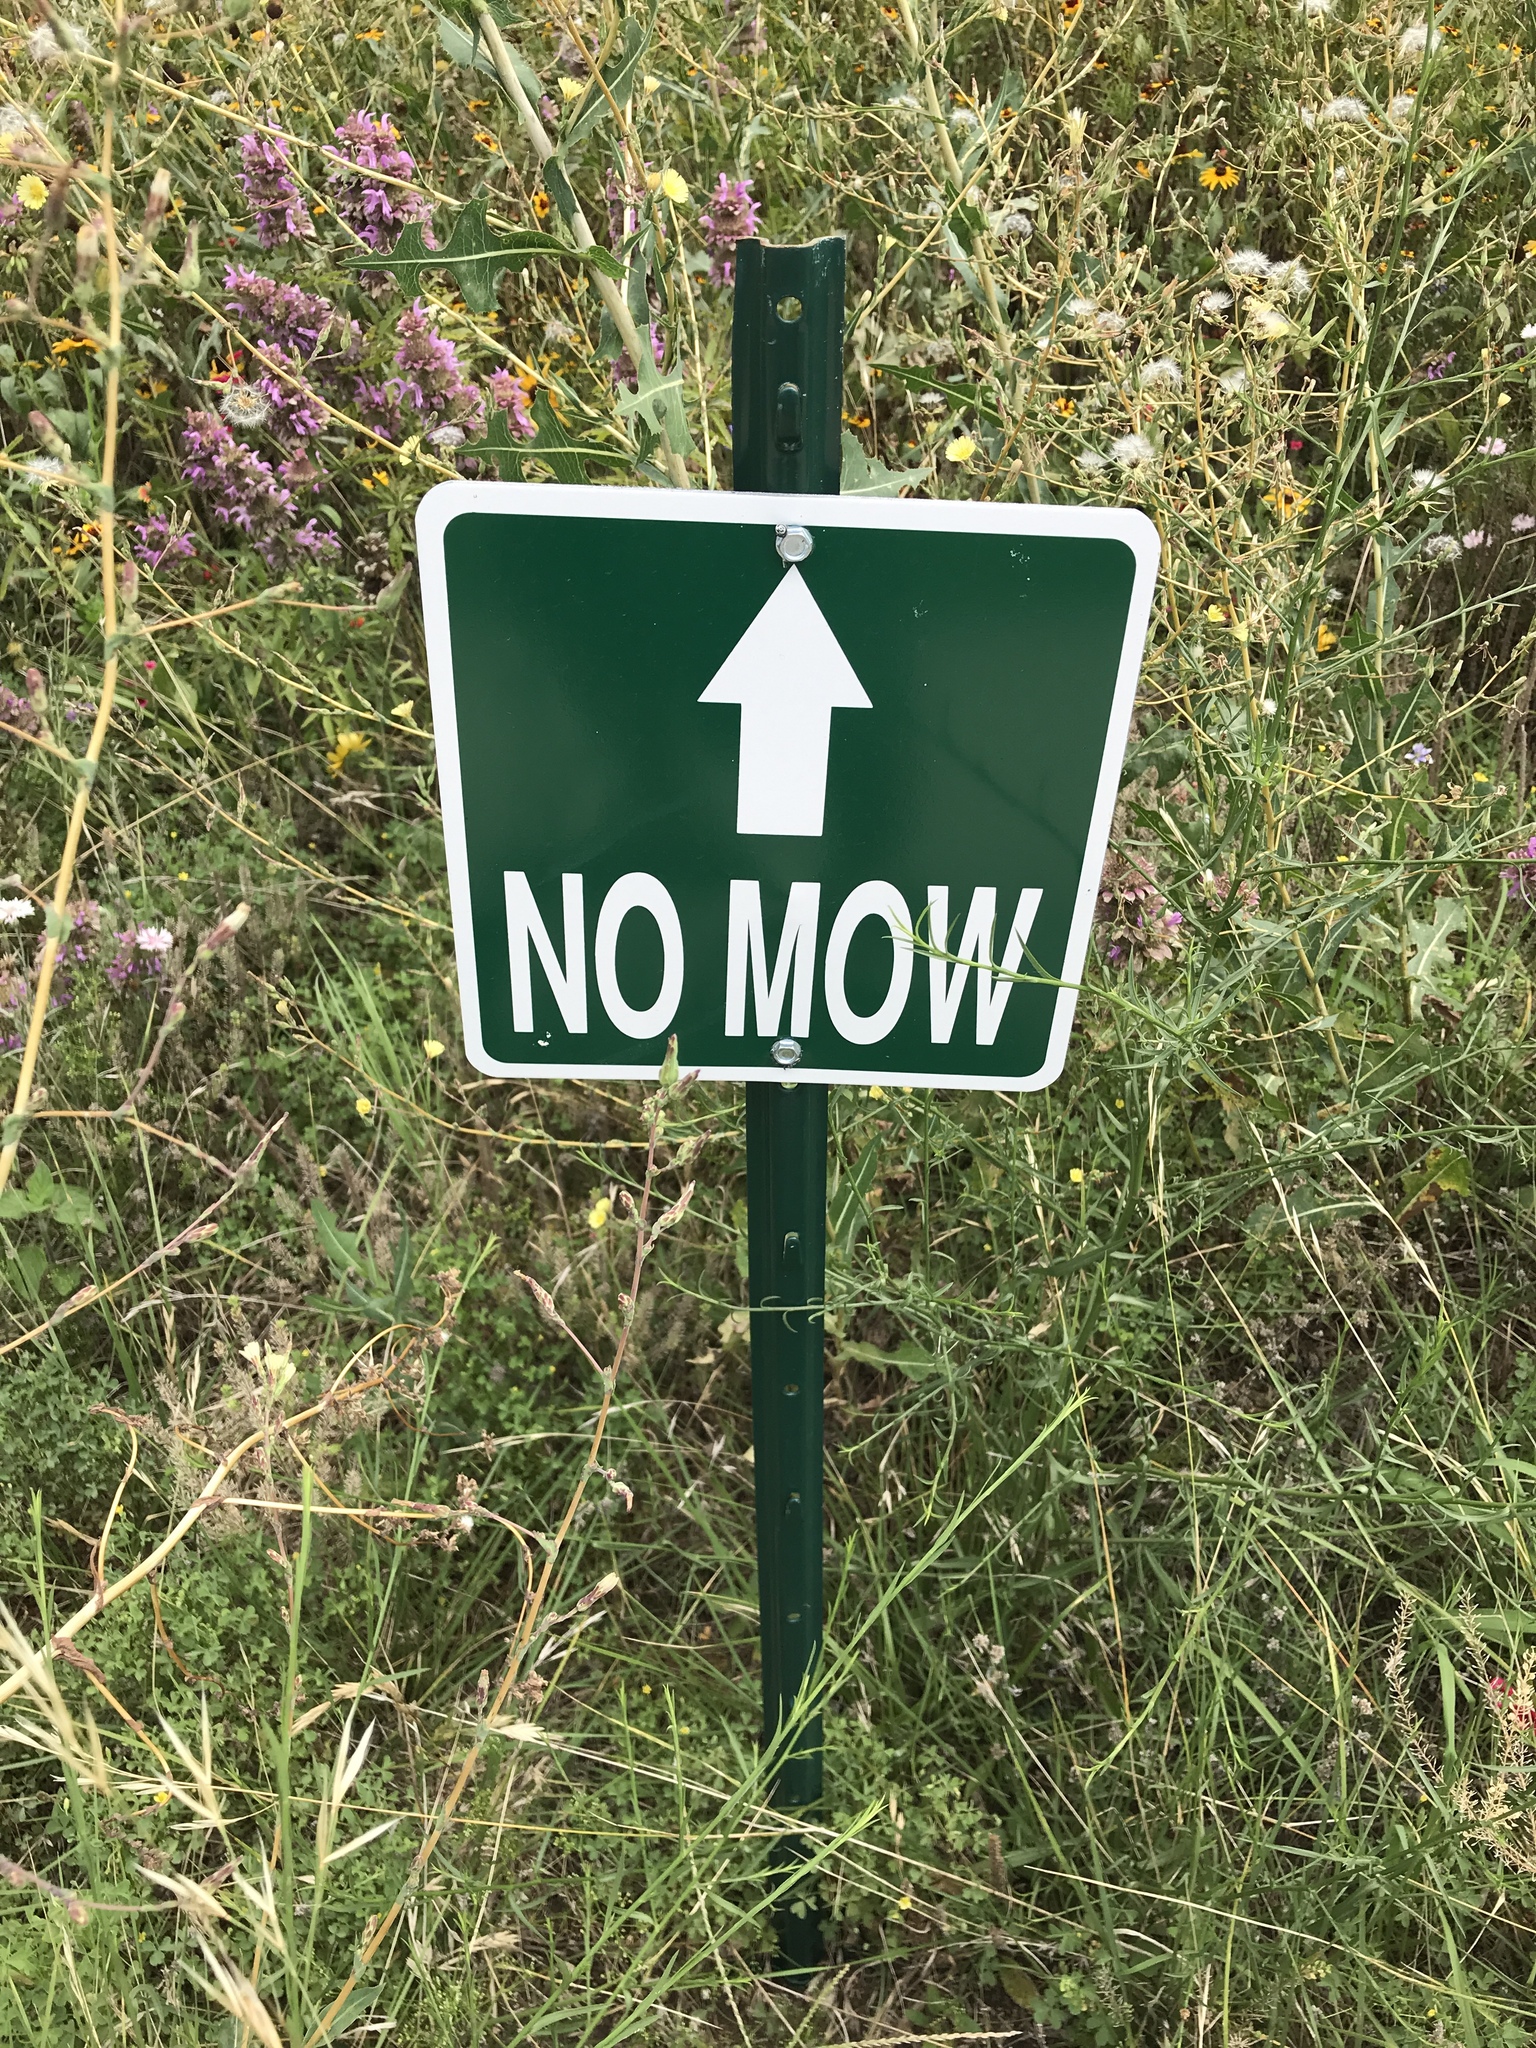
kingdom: Plantae
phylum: Tracheophyta
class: Magnoliopsida
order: Lamiales
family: Lamiaceae
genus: Monarda
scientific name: Monarda citriodora
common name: Lemon beebalm
